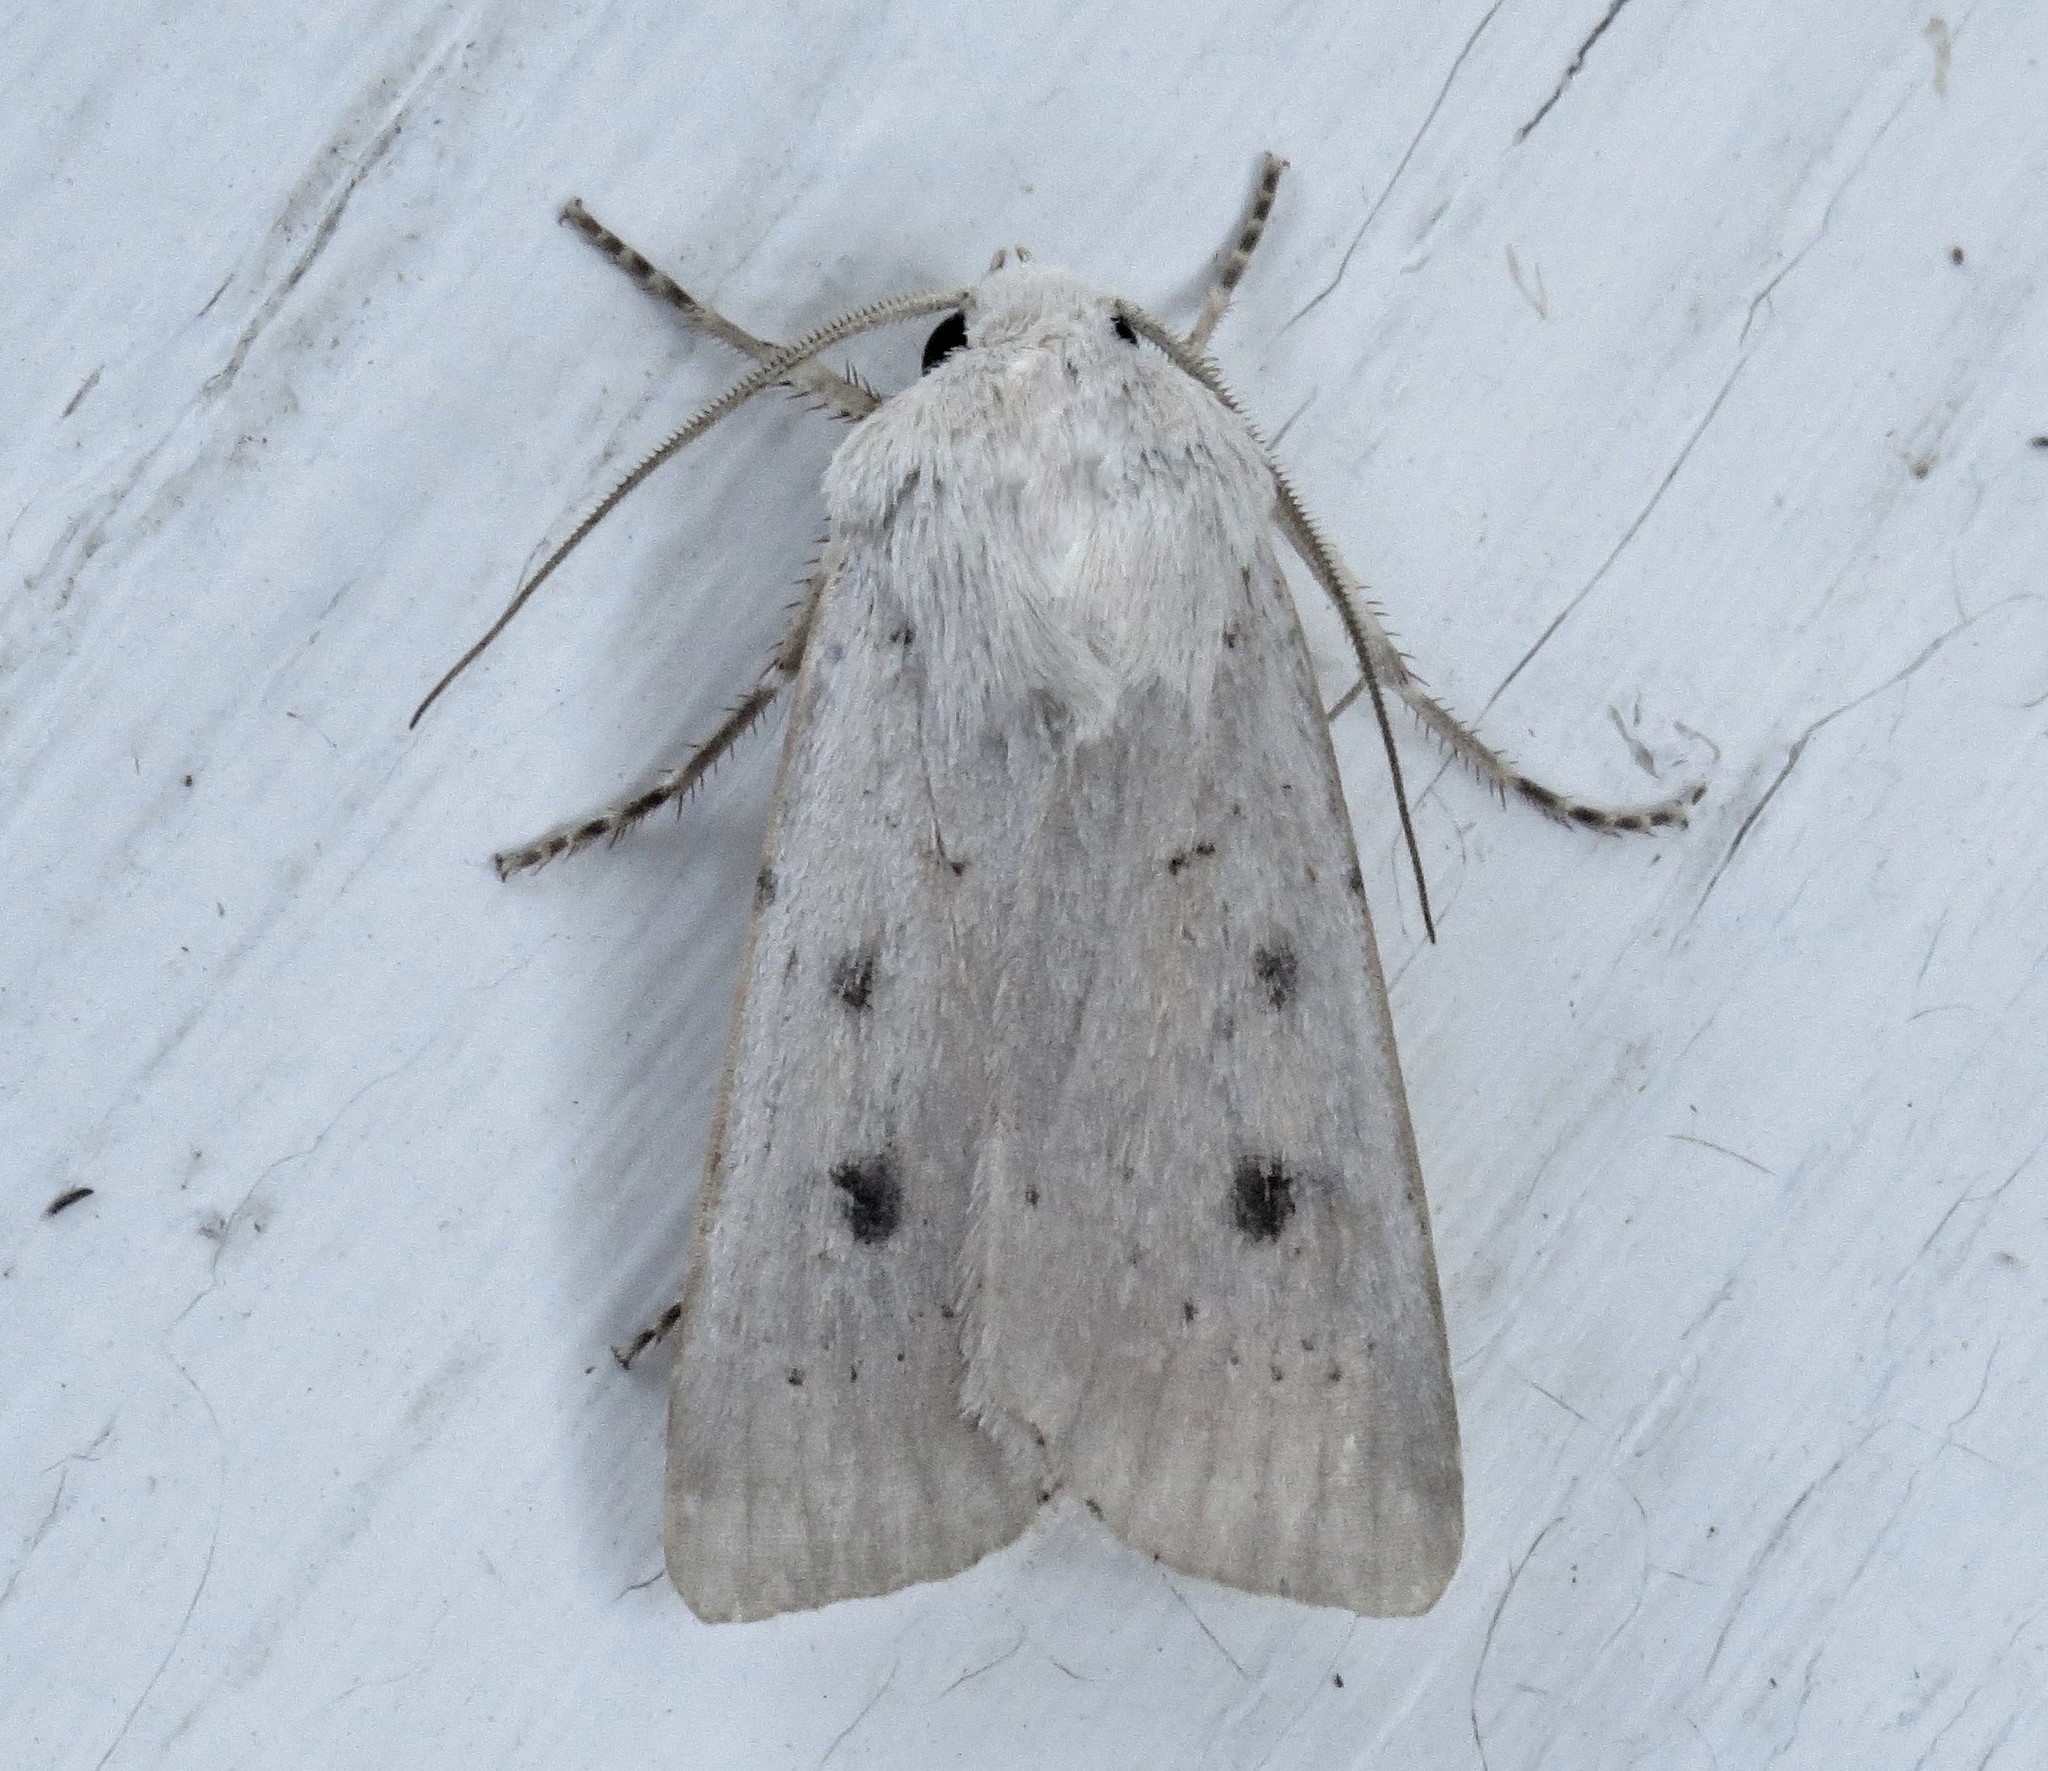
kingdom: Animalia
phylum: Arthropoda
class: Insecta
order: Lepidoptera
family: Noctuidae
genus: Agrotis
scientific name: Agrotis vetusta
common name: Old man dart
